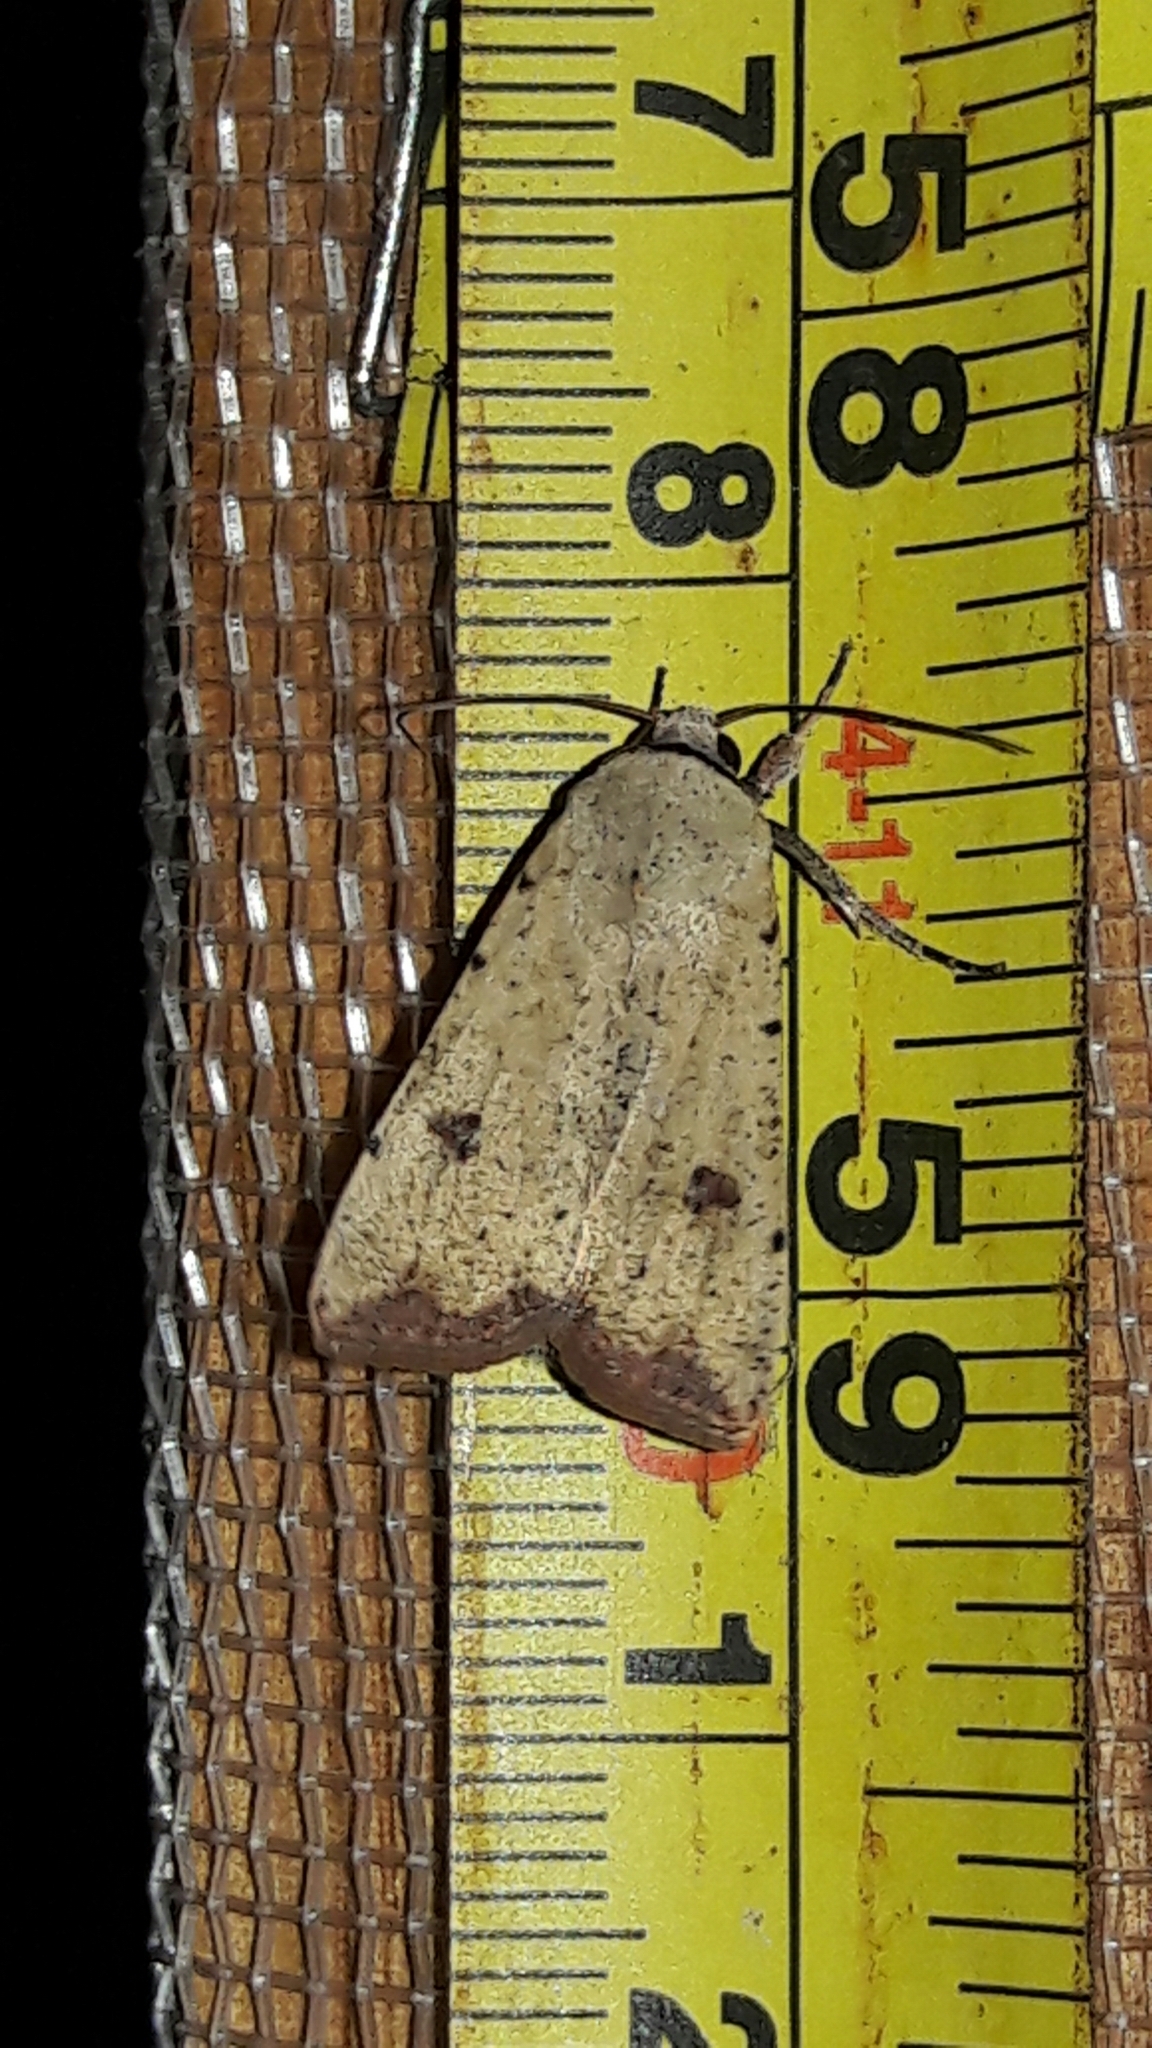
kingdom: Animalia
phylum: Arthropoda
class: Insecta
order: Lepidoptera
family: Noctuidae
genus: Anicla
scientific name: Anicla infecta
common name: Green cutworm
